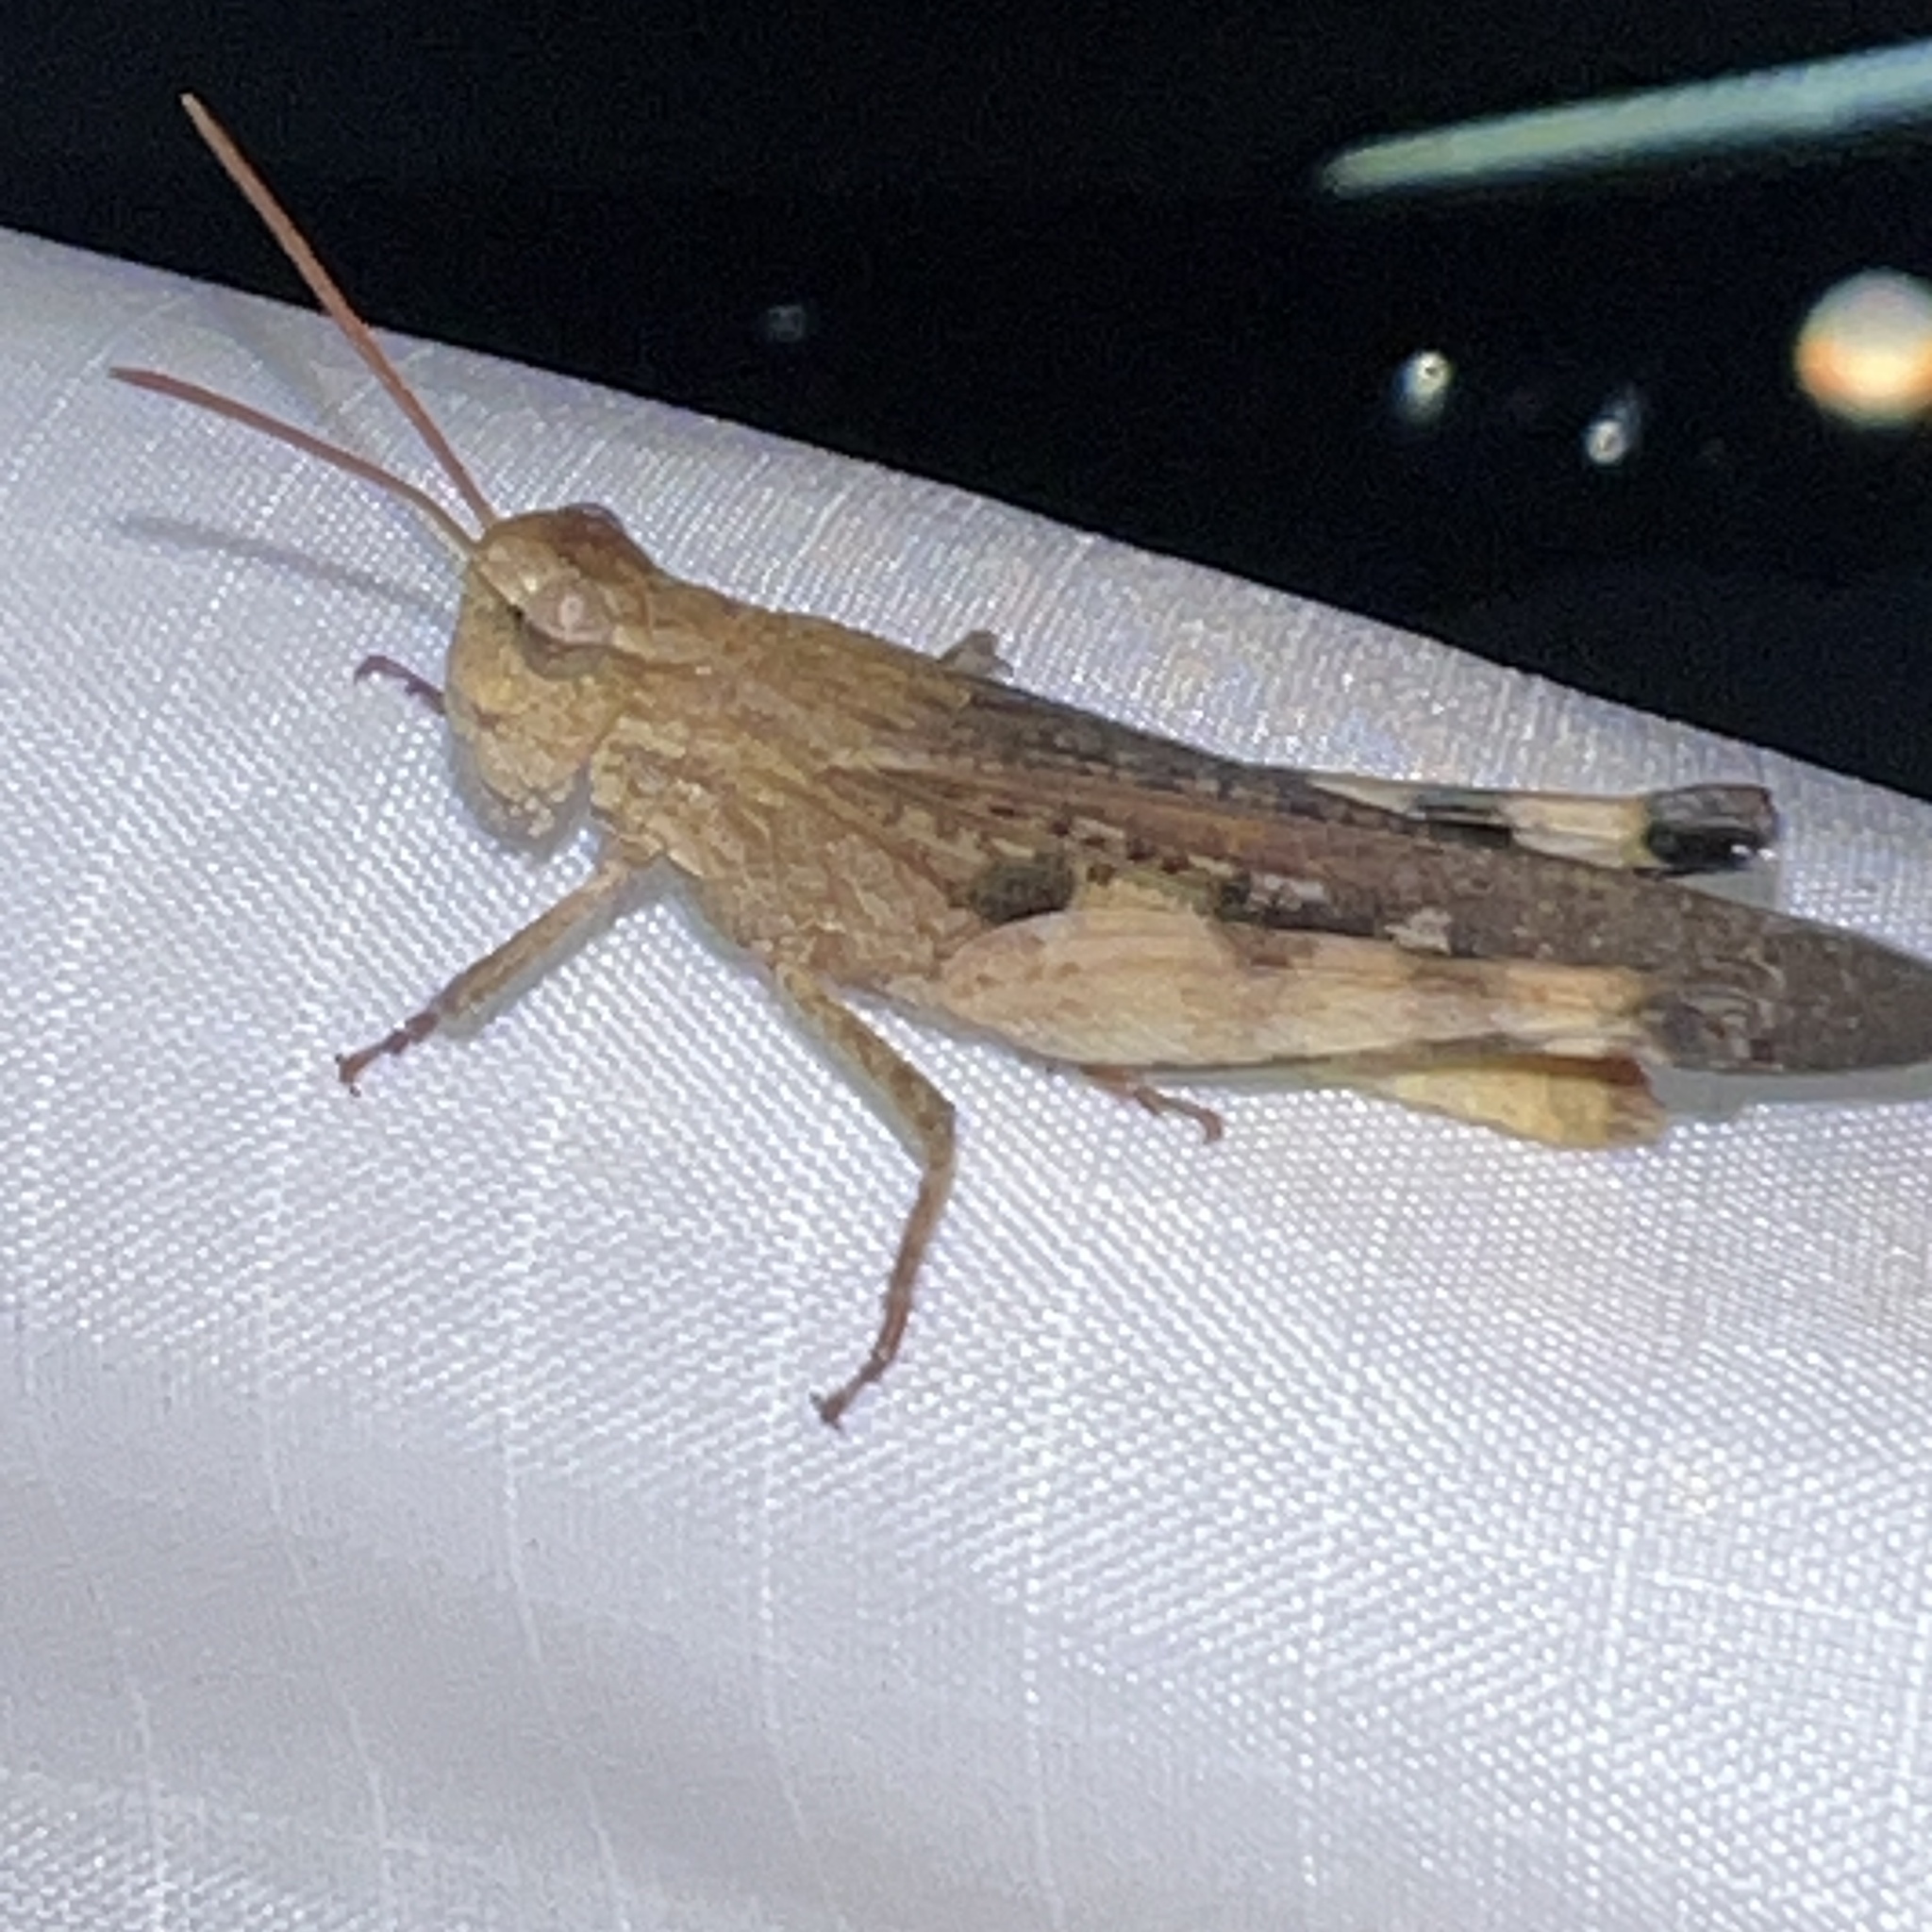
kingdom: Animalia
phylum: Arthropoda
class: Insecta
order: Orthoptera
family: Acrididae
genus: Chortophaga
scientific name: Chortophaga viridifasciata
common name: Green-striped grasshopper
